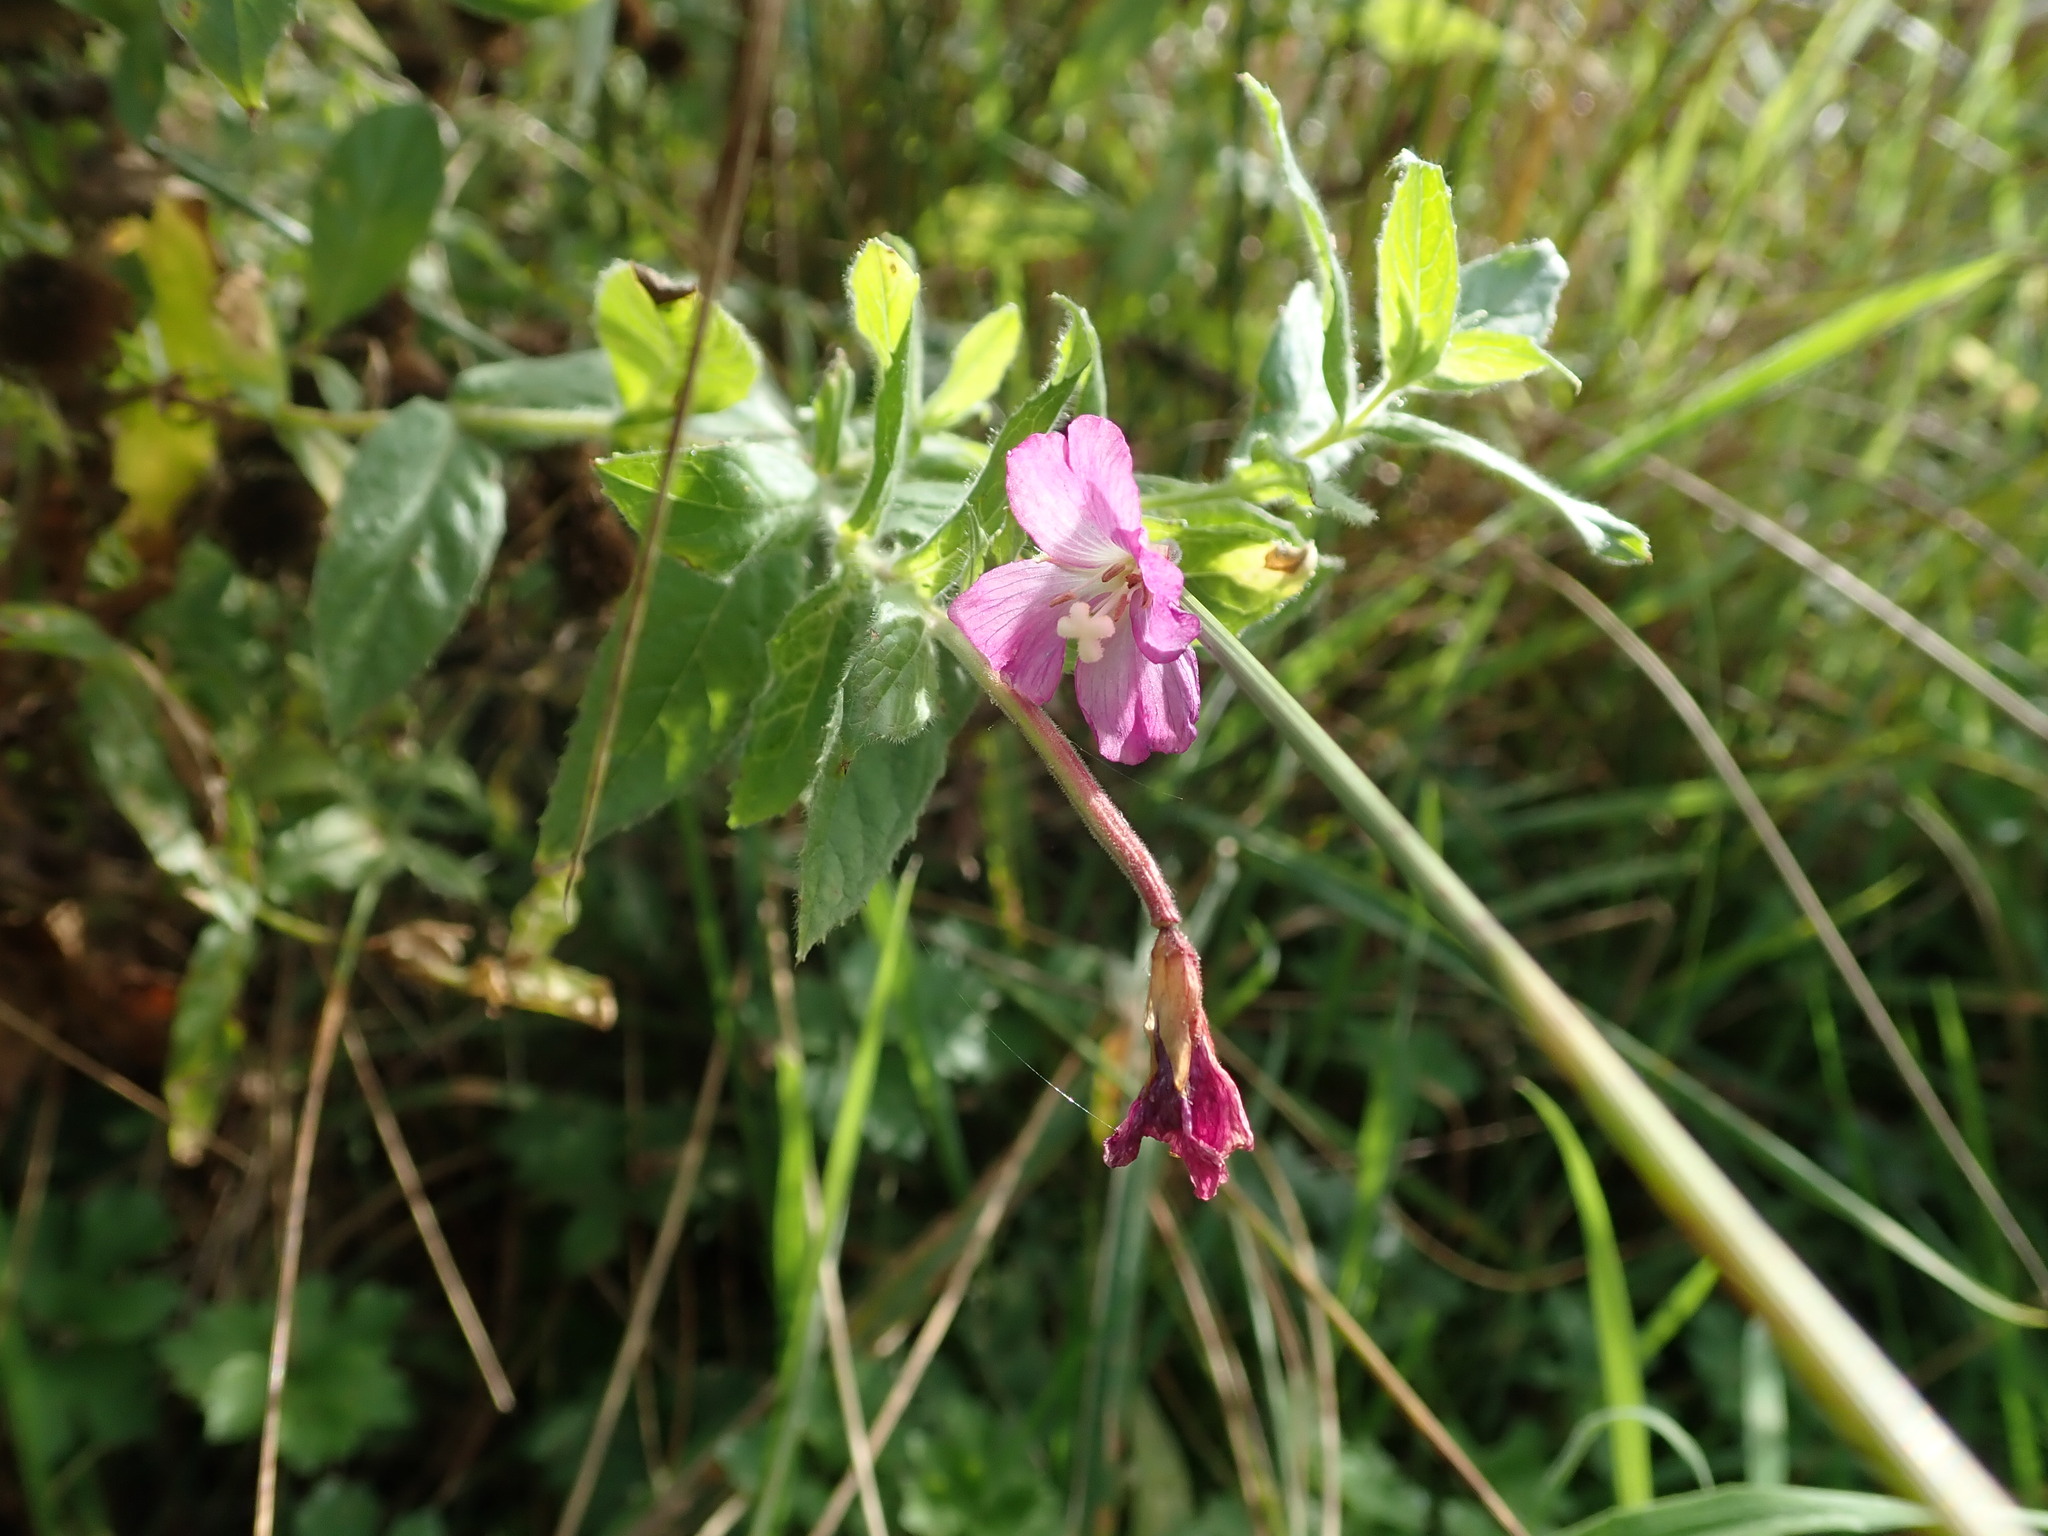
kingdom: Plantae
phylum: Tracheophyta
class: Magnoliopsida
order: Myrtales
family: Onagraceae
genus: Epilobium
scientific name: Epilobium hirsutum
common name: Great willowherb
